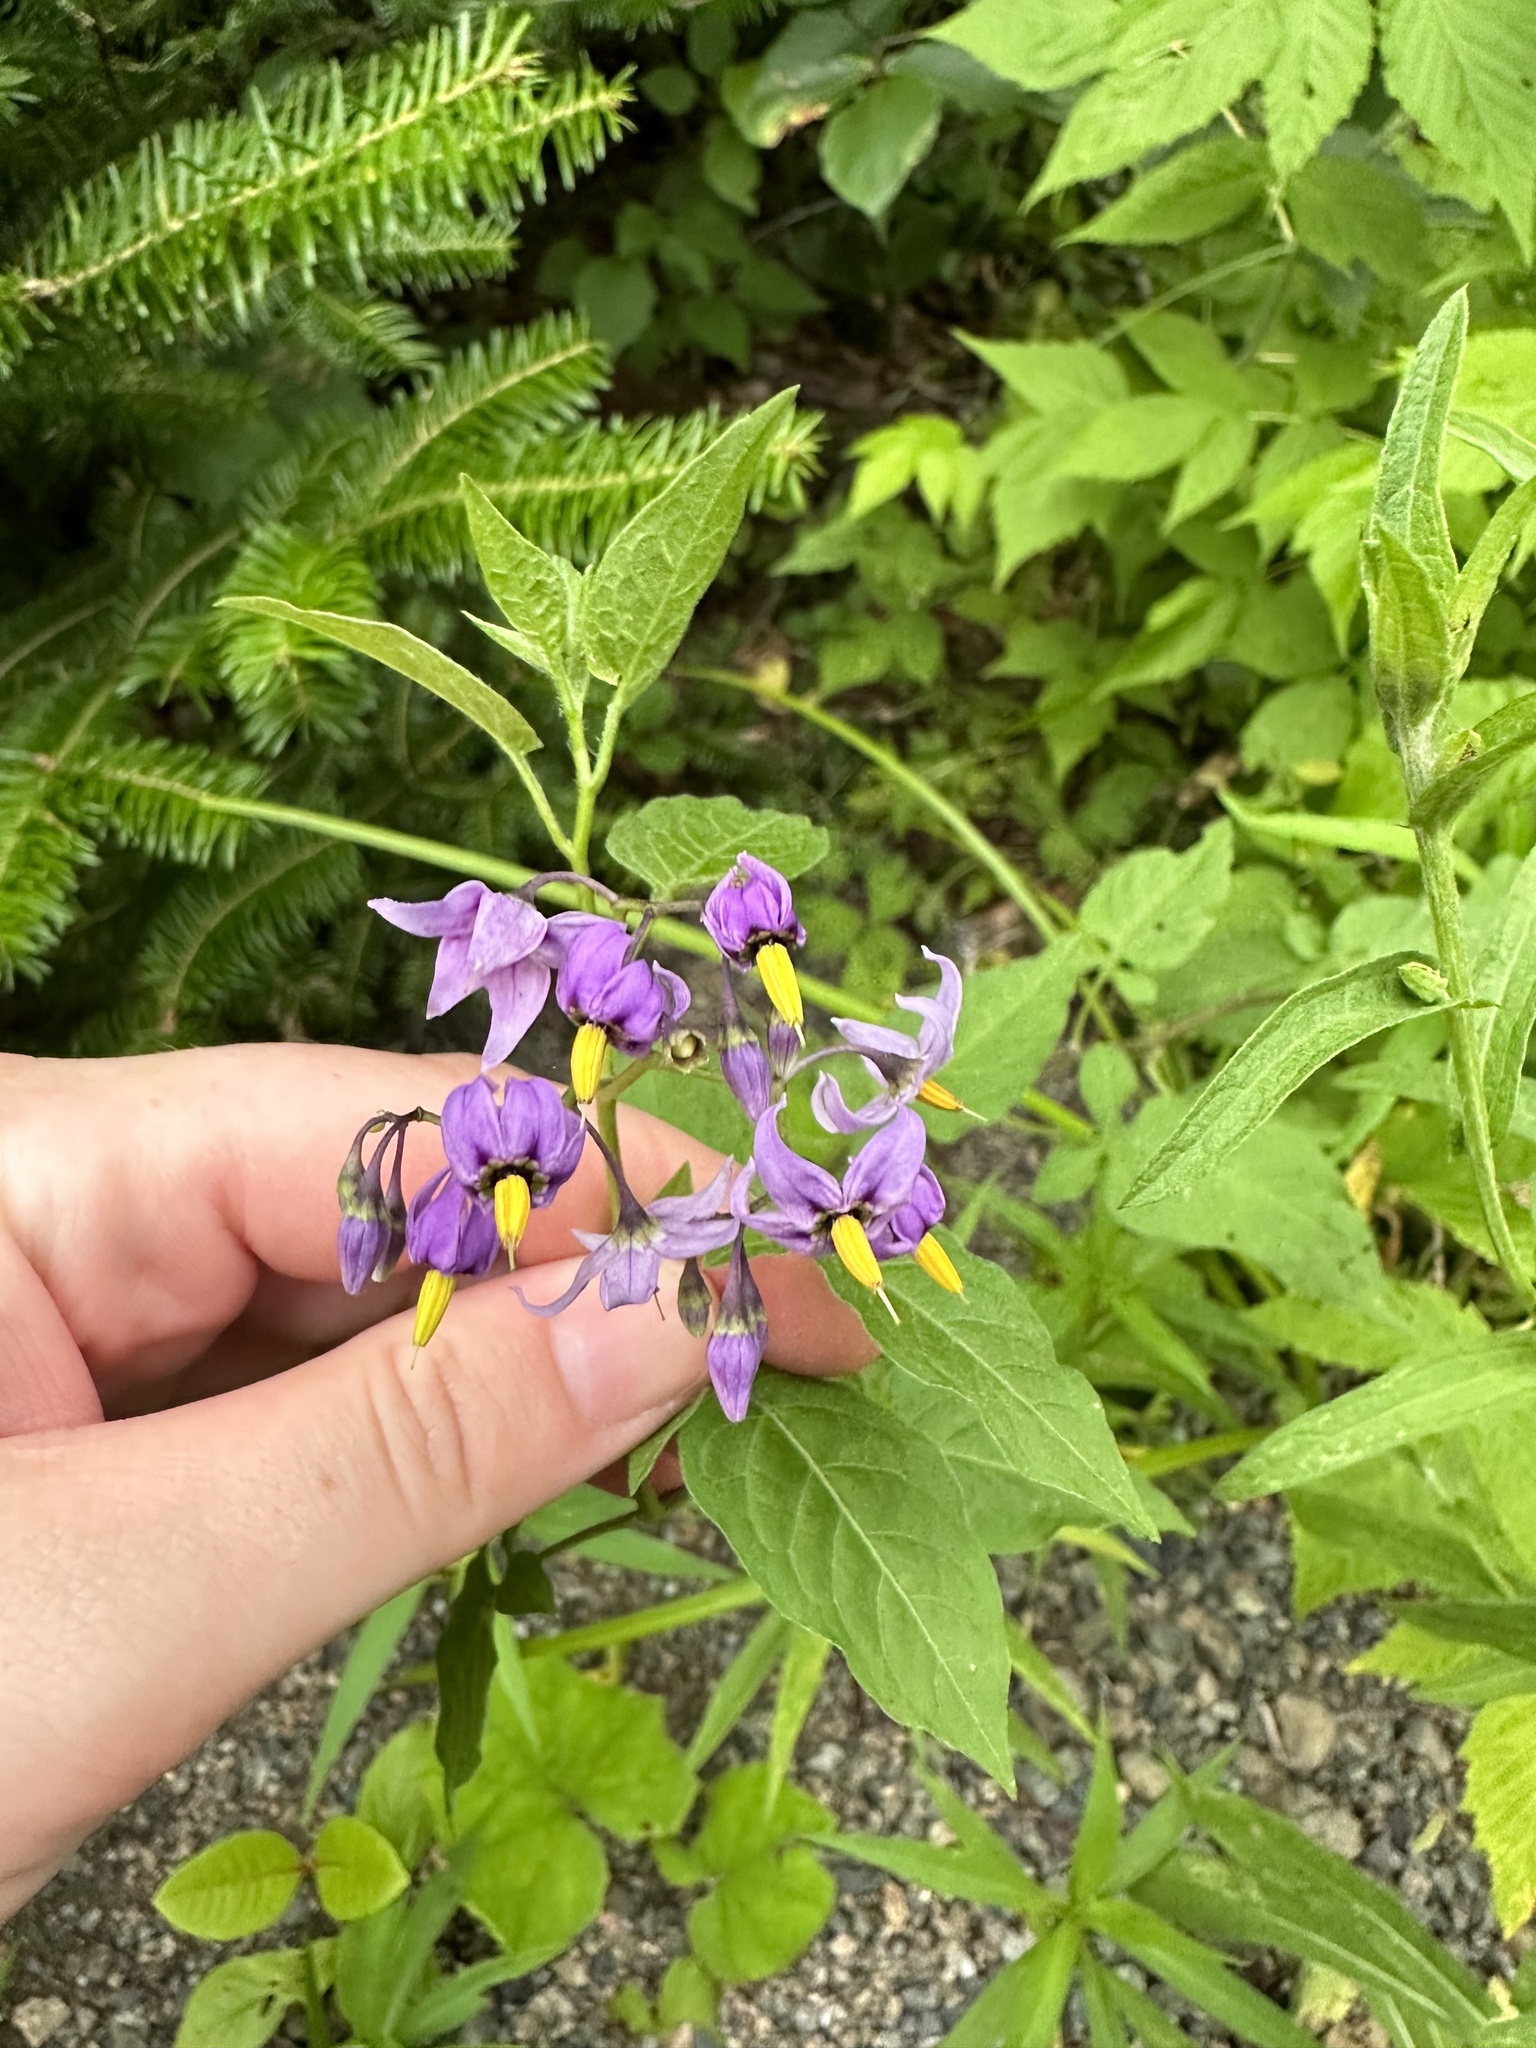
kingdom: Plantae
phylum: Tracheophyta
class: Magnoliopsida
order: Solanales
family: Solanaceae
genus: Solanum
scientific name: Solanum dulcamara
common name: Climbing nightshade
